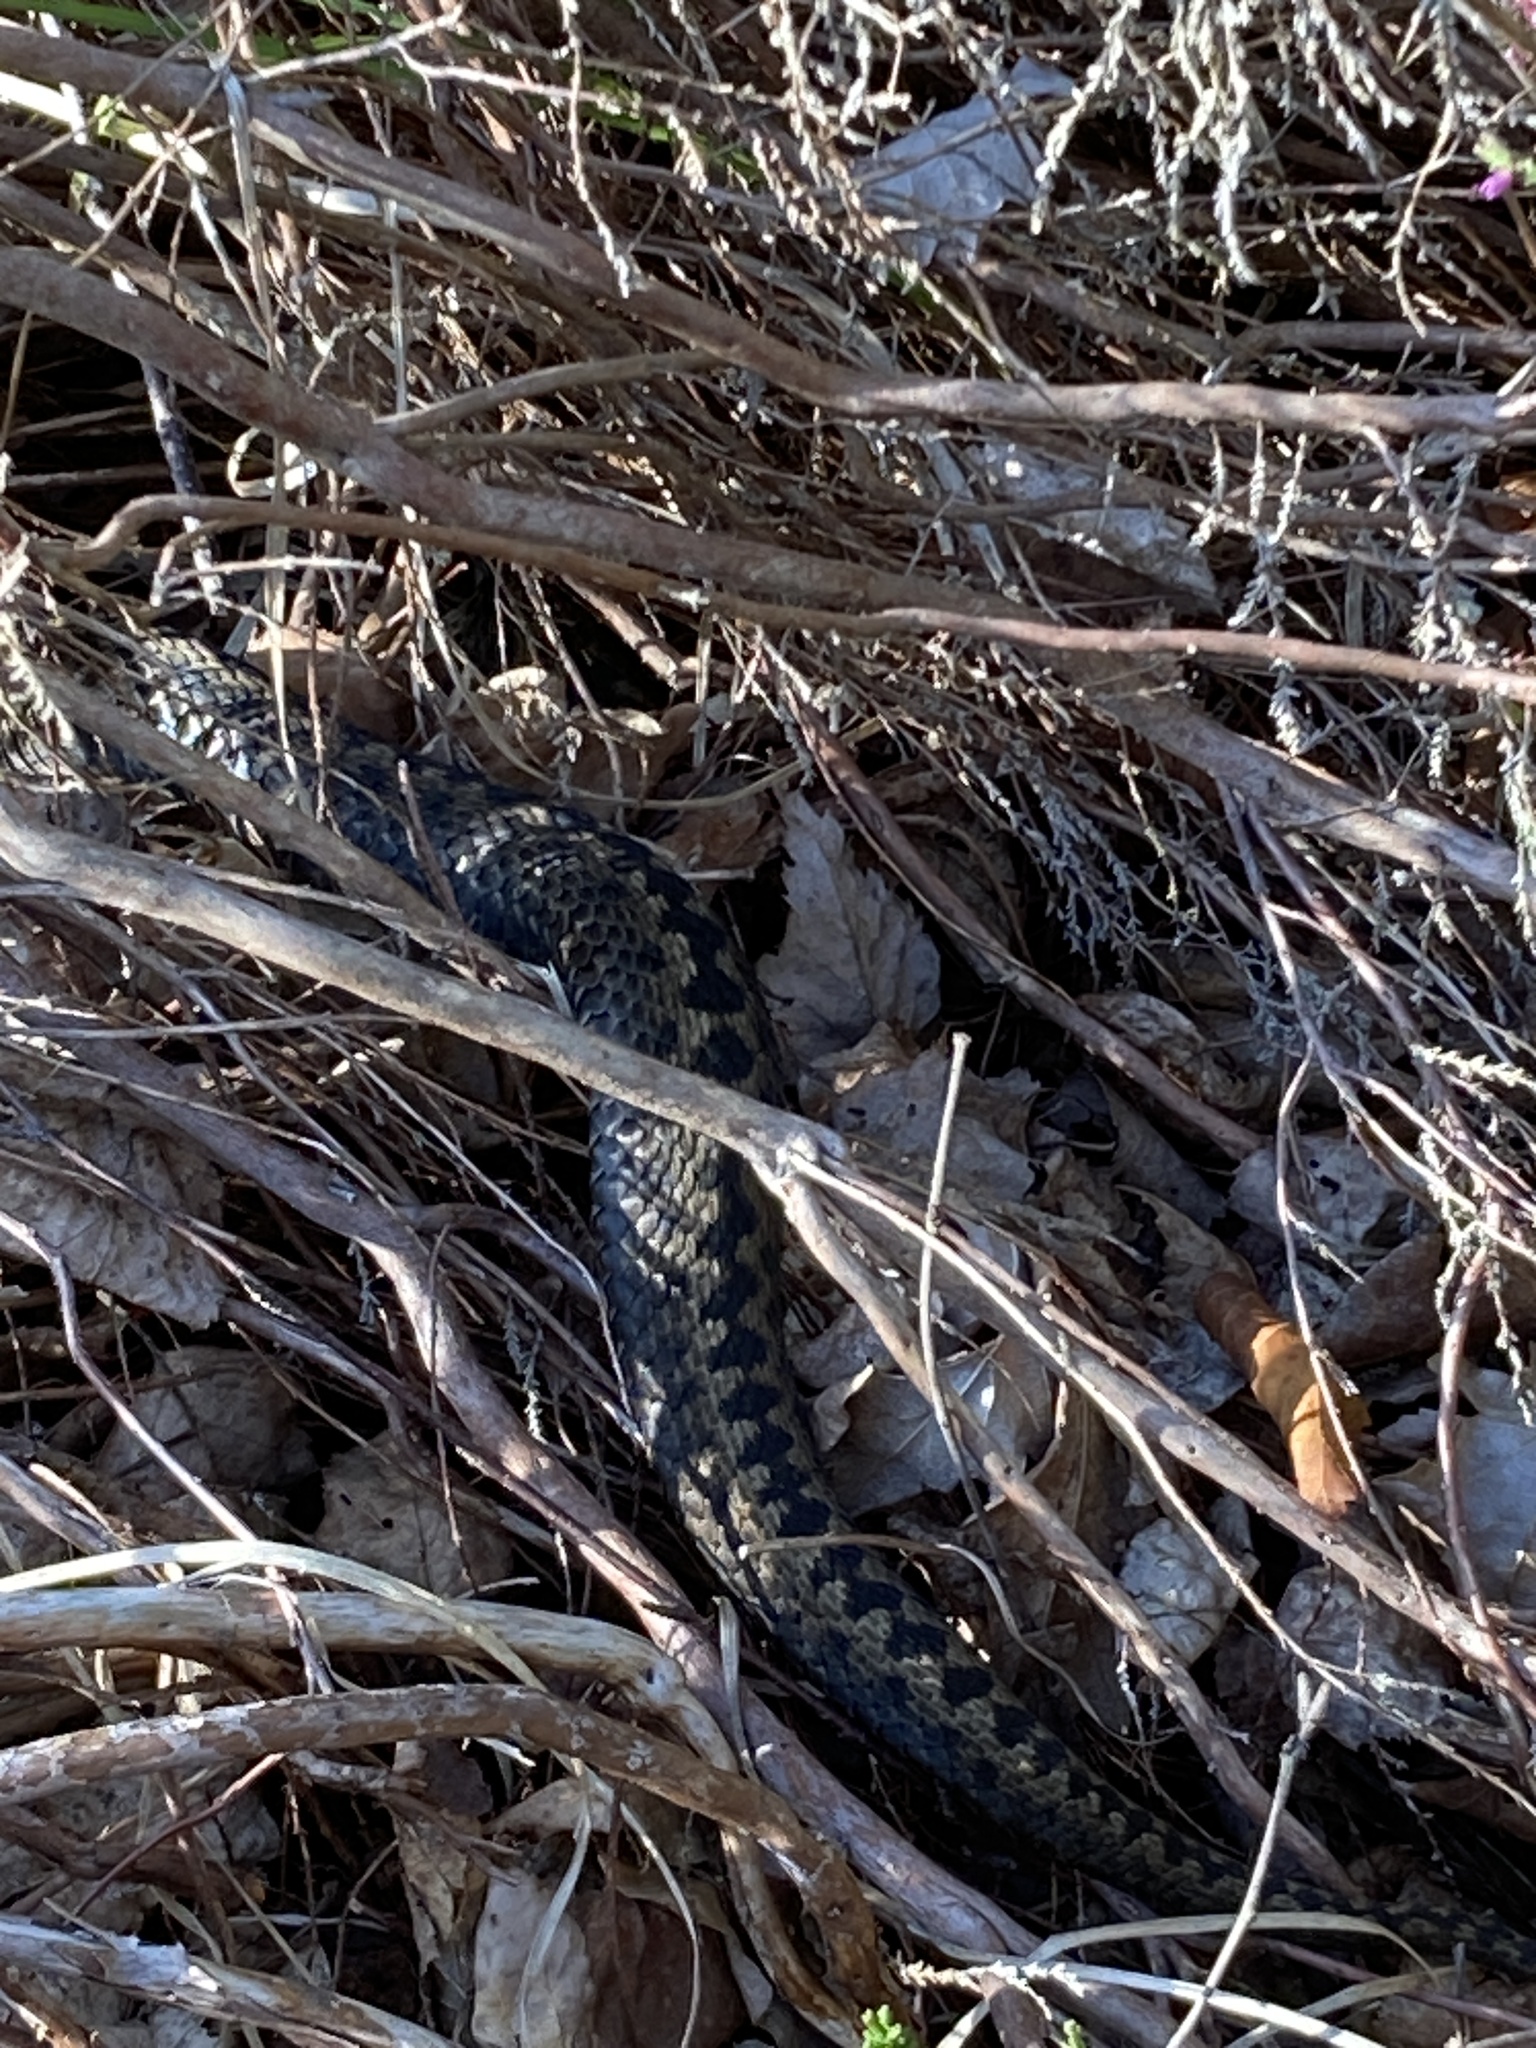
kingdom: Animalia
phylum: Chordata
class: Squamata
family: Viperidae
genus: Vipera
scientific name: Vipera berus
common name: Adder
